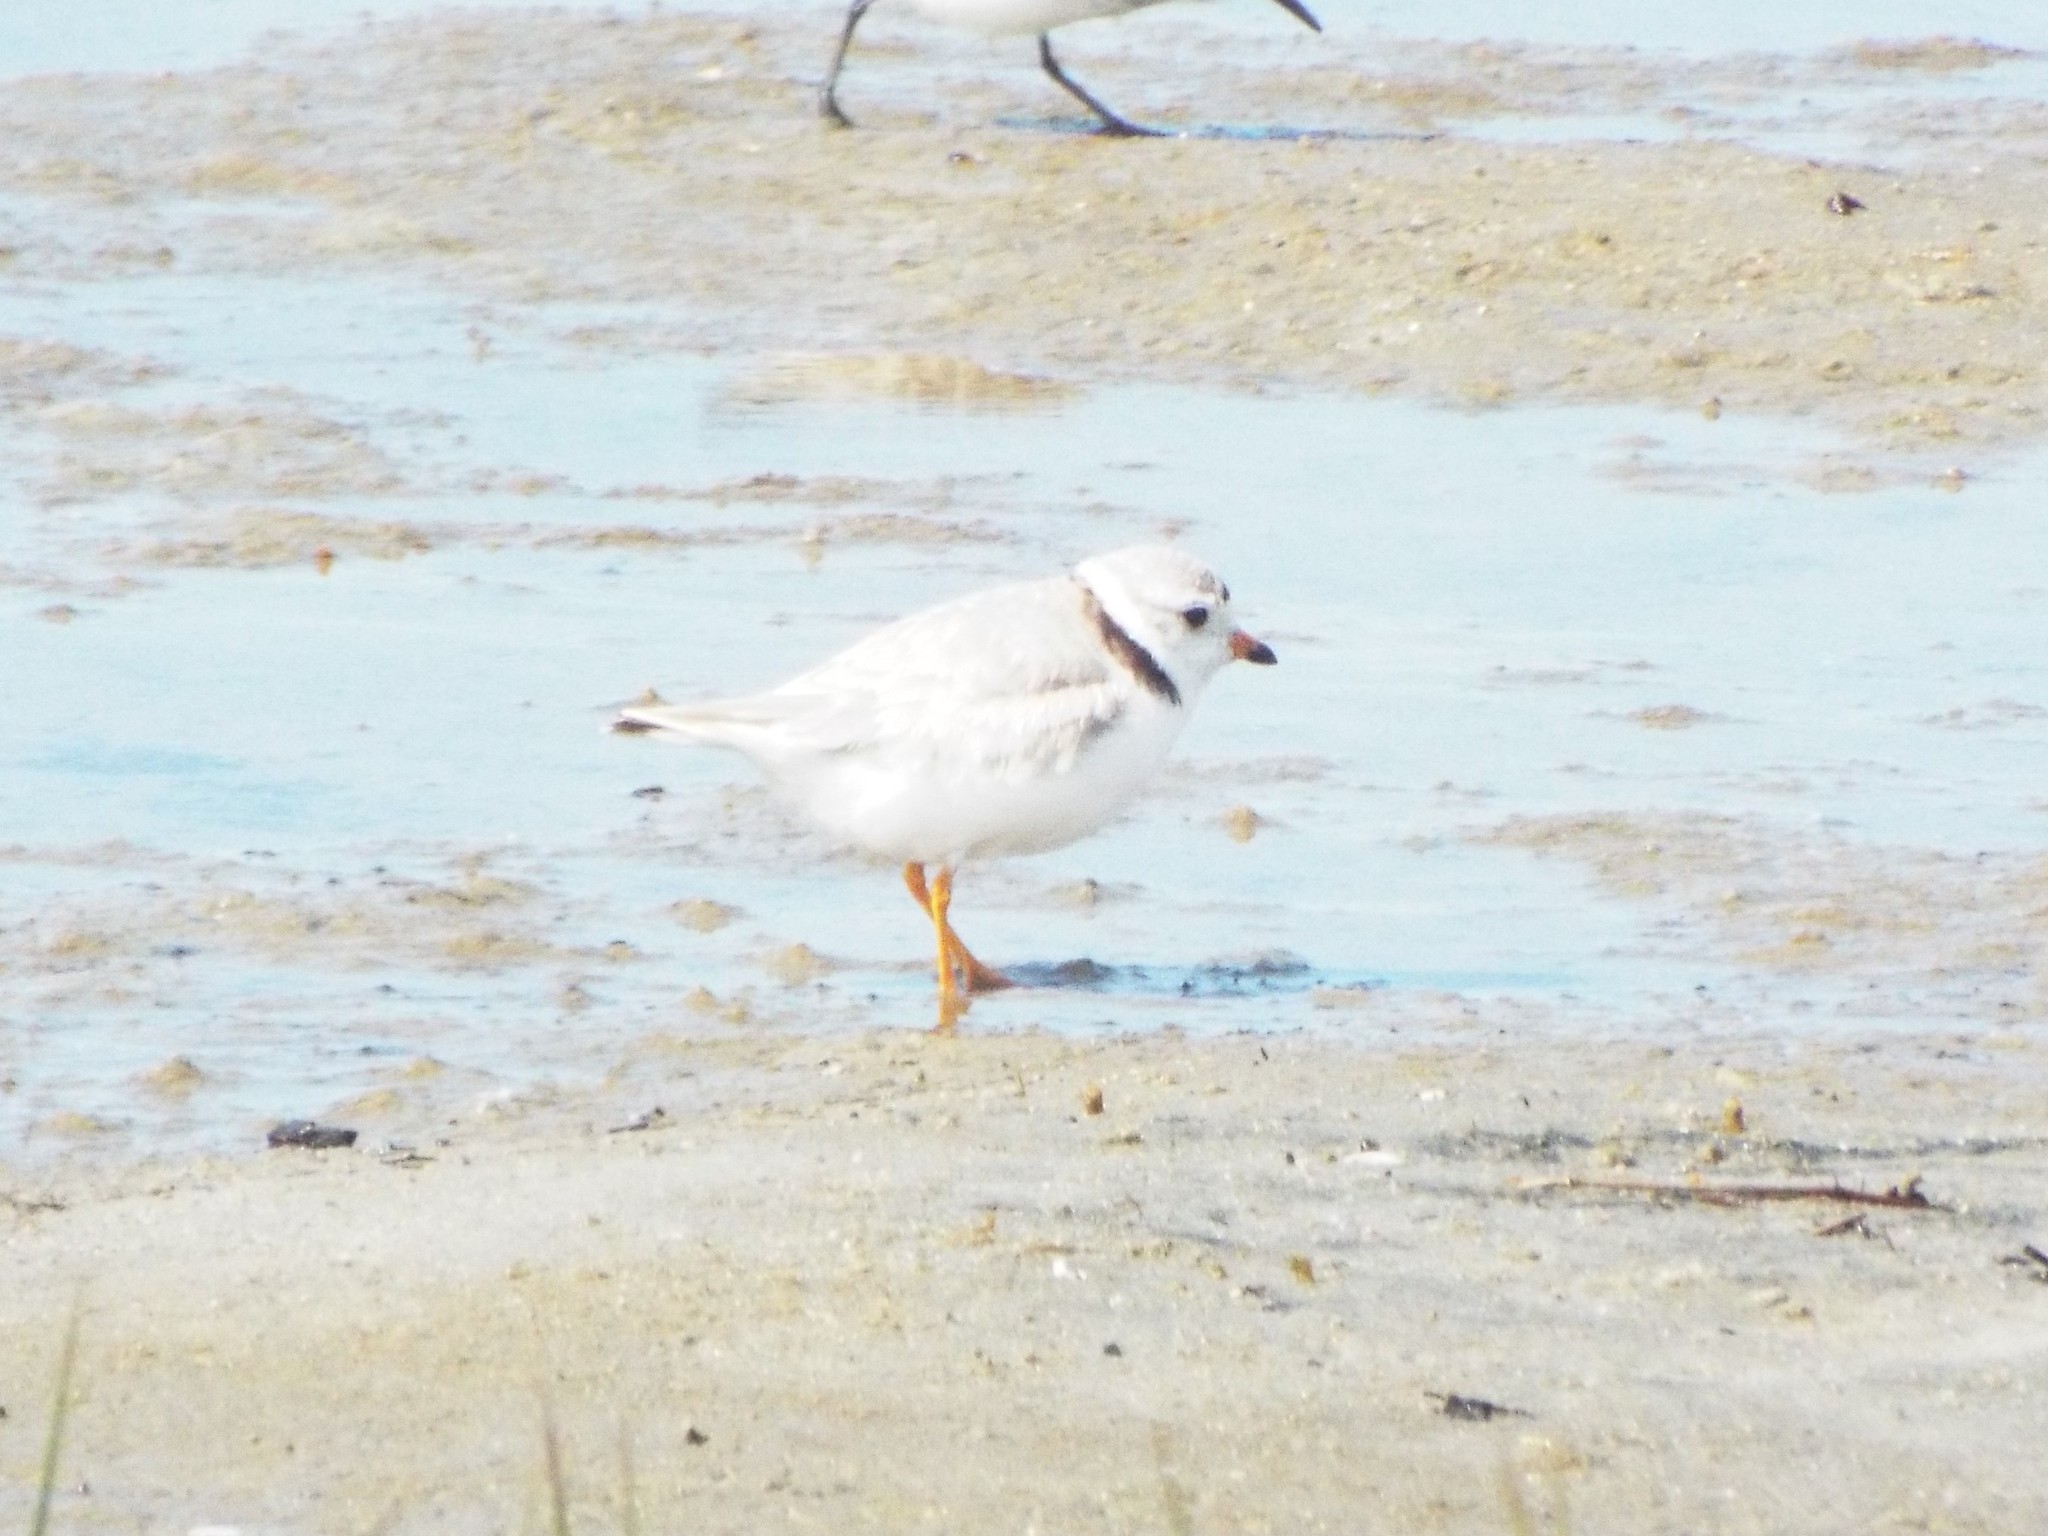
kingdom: Animalia
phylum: Chordata
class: Aves
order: Charadriiformes
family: Charadriidae
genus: Charadrius
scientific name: Charadrius melodus
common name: Piping plover
